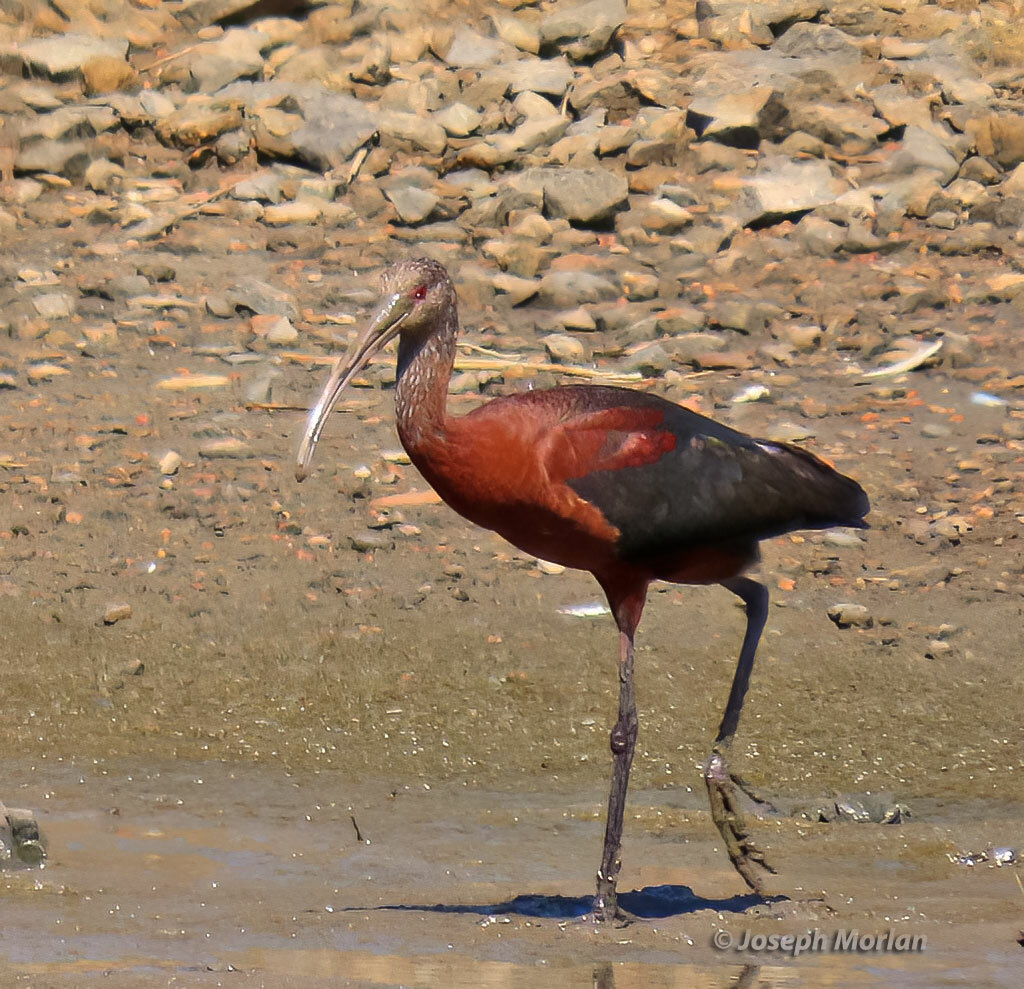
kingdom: Animalia
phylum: Chordata
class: Aves
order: Pelecaniformes
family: Threskiornithidae
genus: Plegadis
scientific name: Plegadis chihi
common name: White-faced ibis
